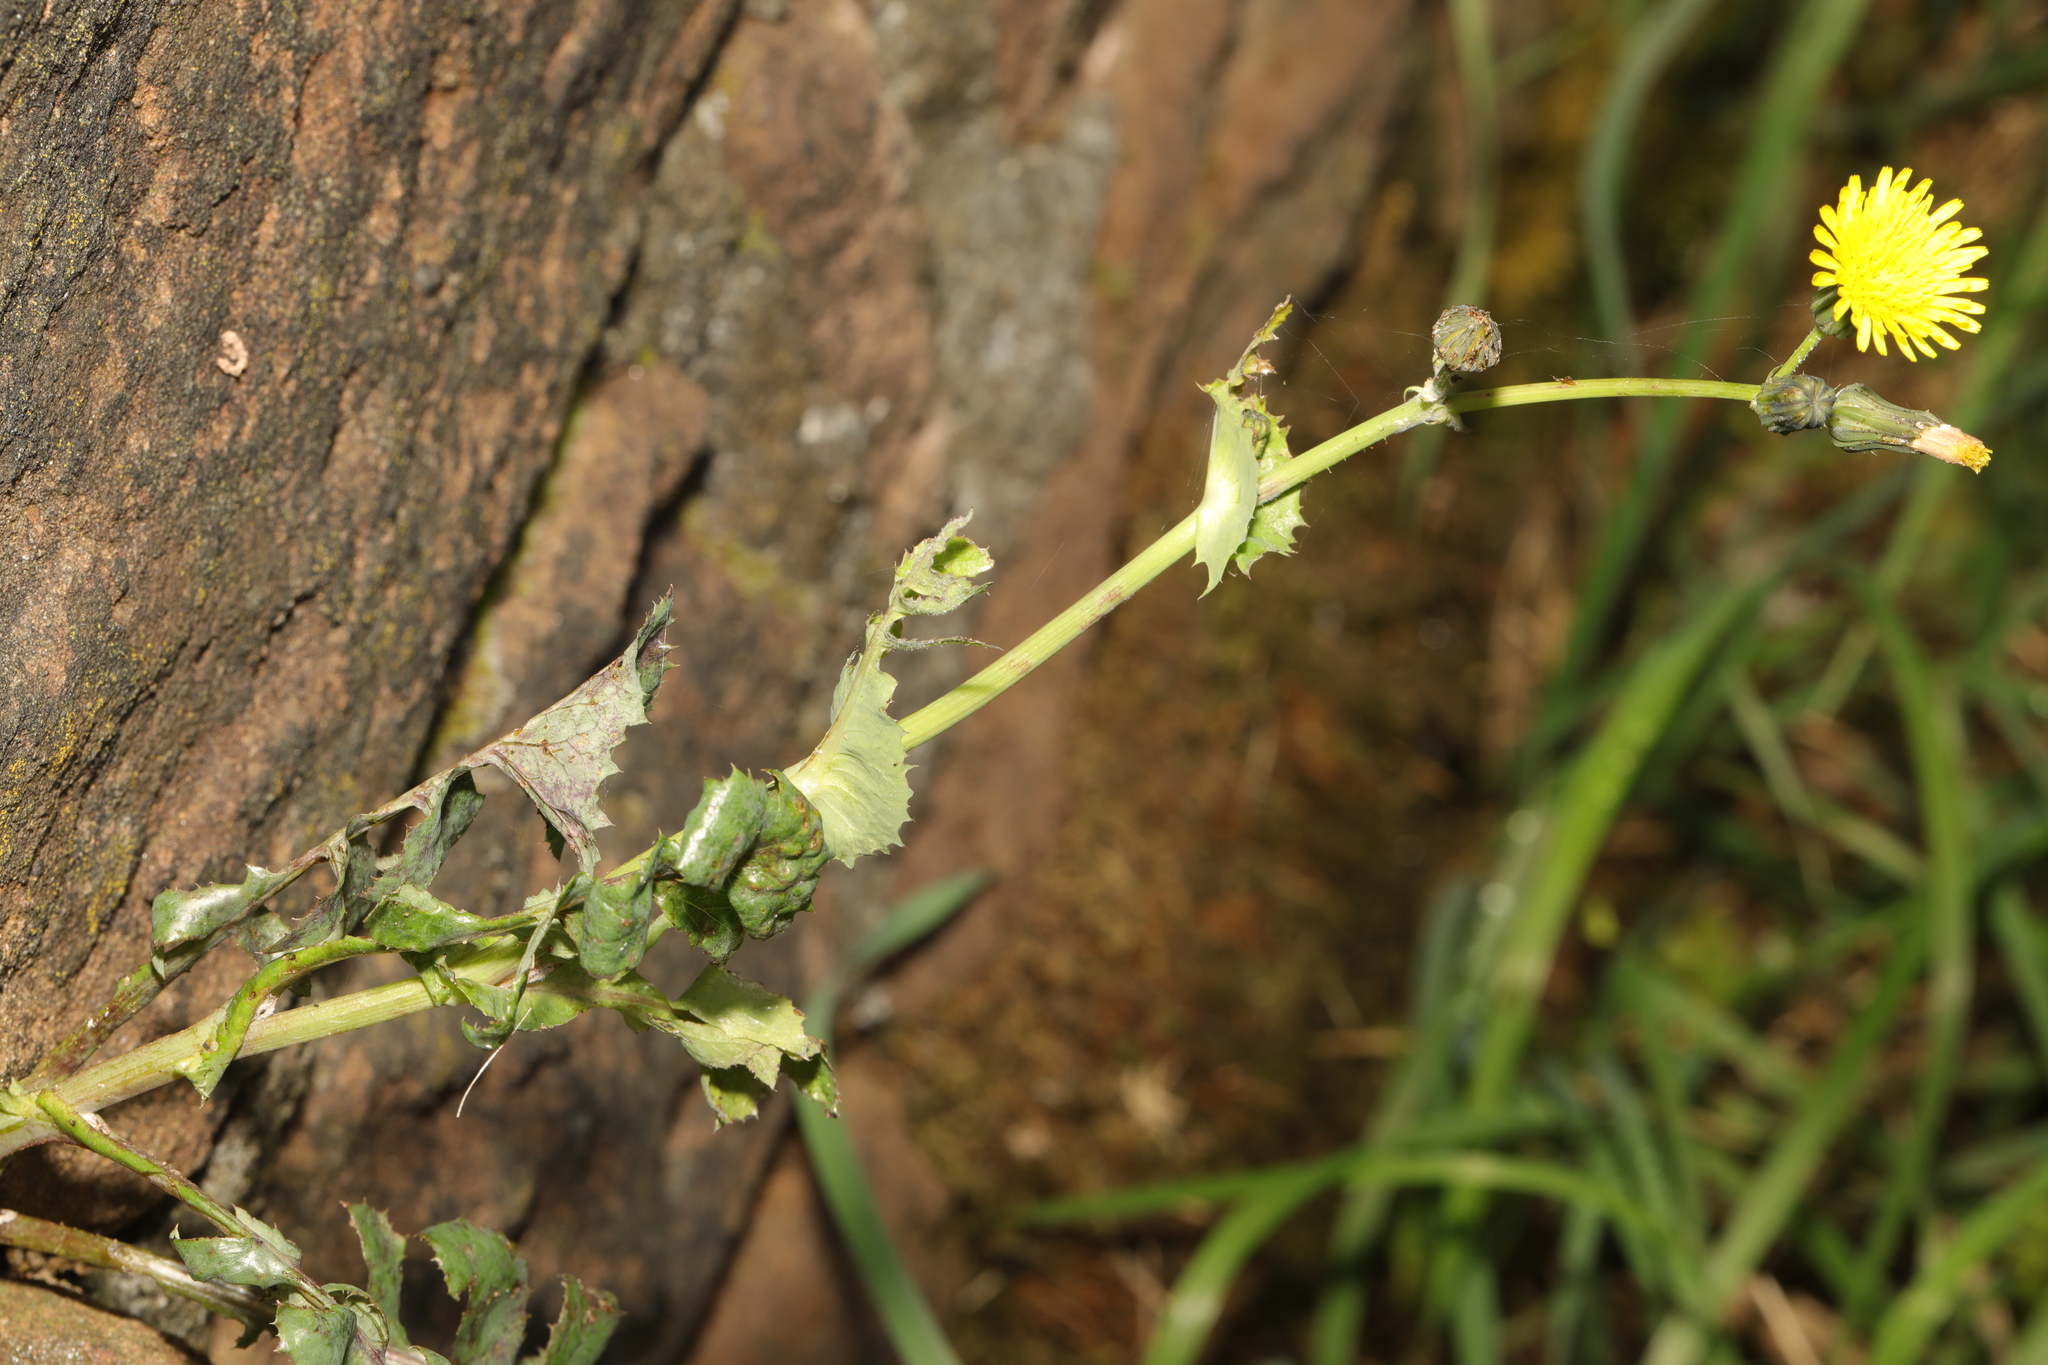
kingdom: Plantae
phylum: Tracheophyta
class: Magnoliopsida
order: Asterales
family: Asteraceae
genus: Sonchus
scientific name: Sonchus asper
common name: Prickly sow-thistle
